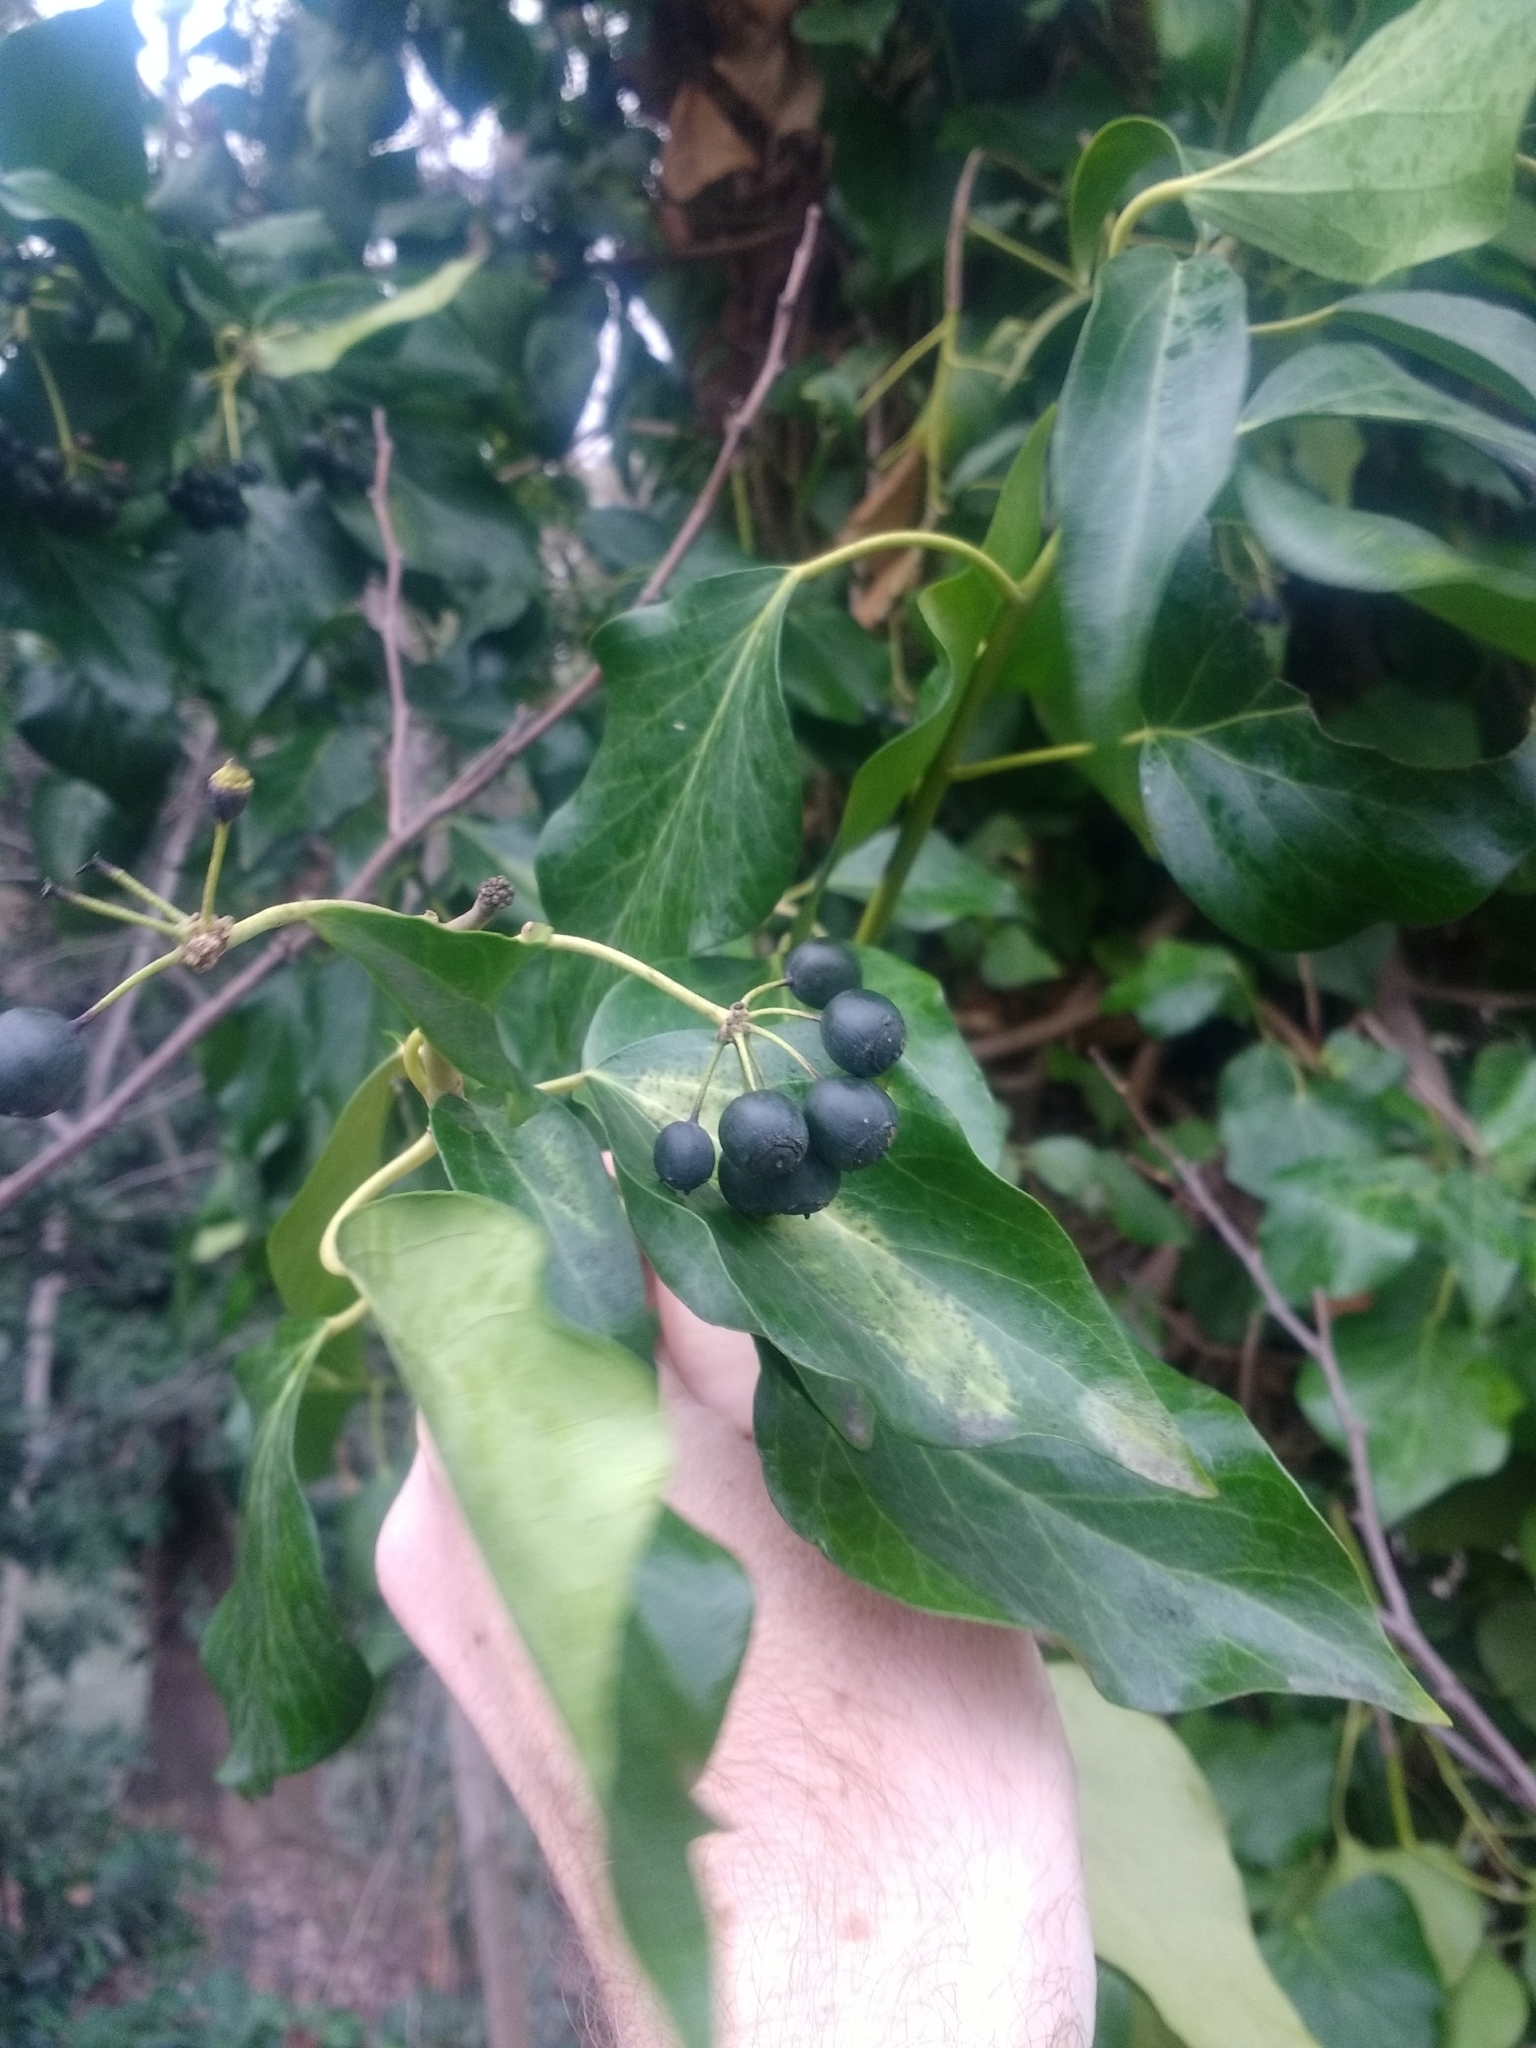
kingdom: Plantae
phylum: Tracheophyta
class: Magnoliopsida
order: Apiales
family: Araliaceae
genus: Hedera
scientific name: Hedera helix
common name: Ivy
